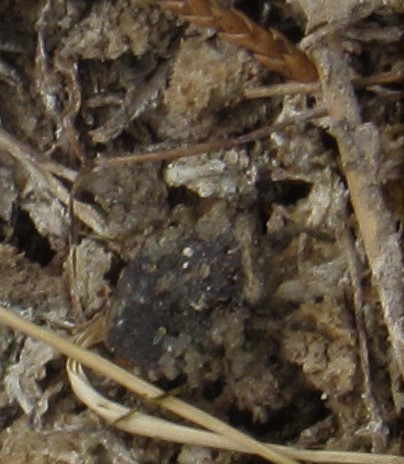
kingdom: Animalia
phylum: Arthropoda
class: Insecta
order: Hemiptera
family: Gelastocoridae
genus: Gelastocoris
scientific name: Gelastocoris oculatus
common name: Toad bug
